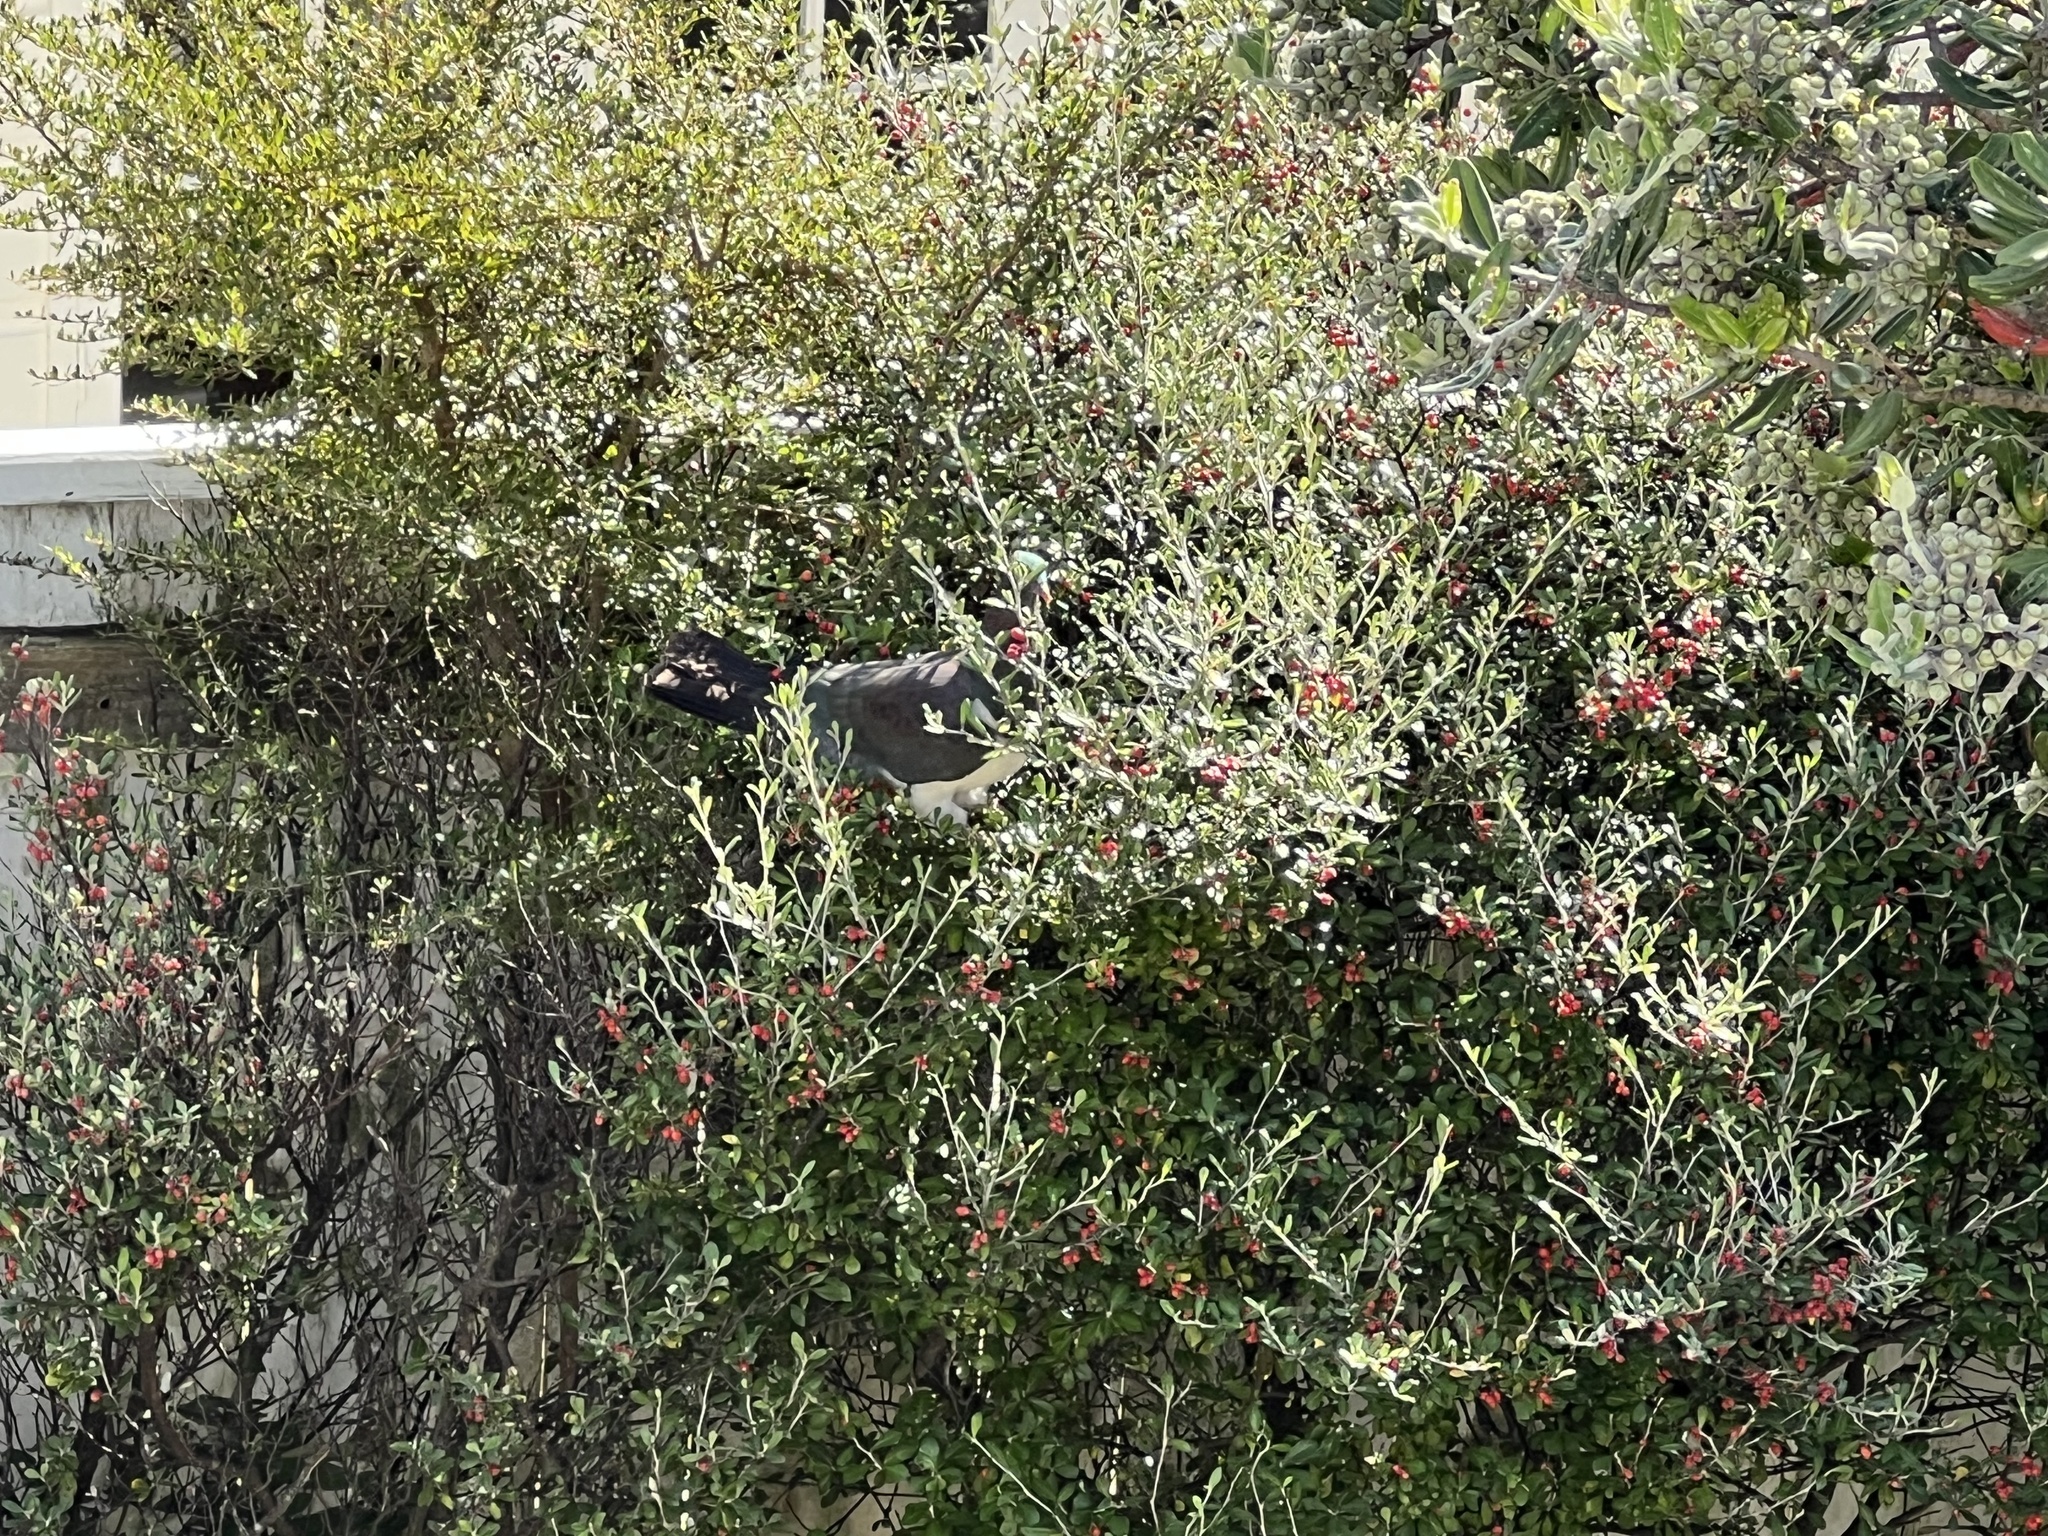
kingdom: Animalia
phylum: Chordata
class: Aves
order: Columbiformes
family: Columbidae
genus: Hemiphaga
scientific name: Hemiphaga novaeseelandiae
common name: New zealand pigeon
